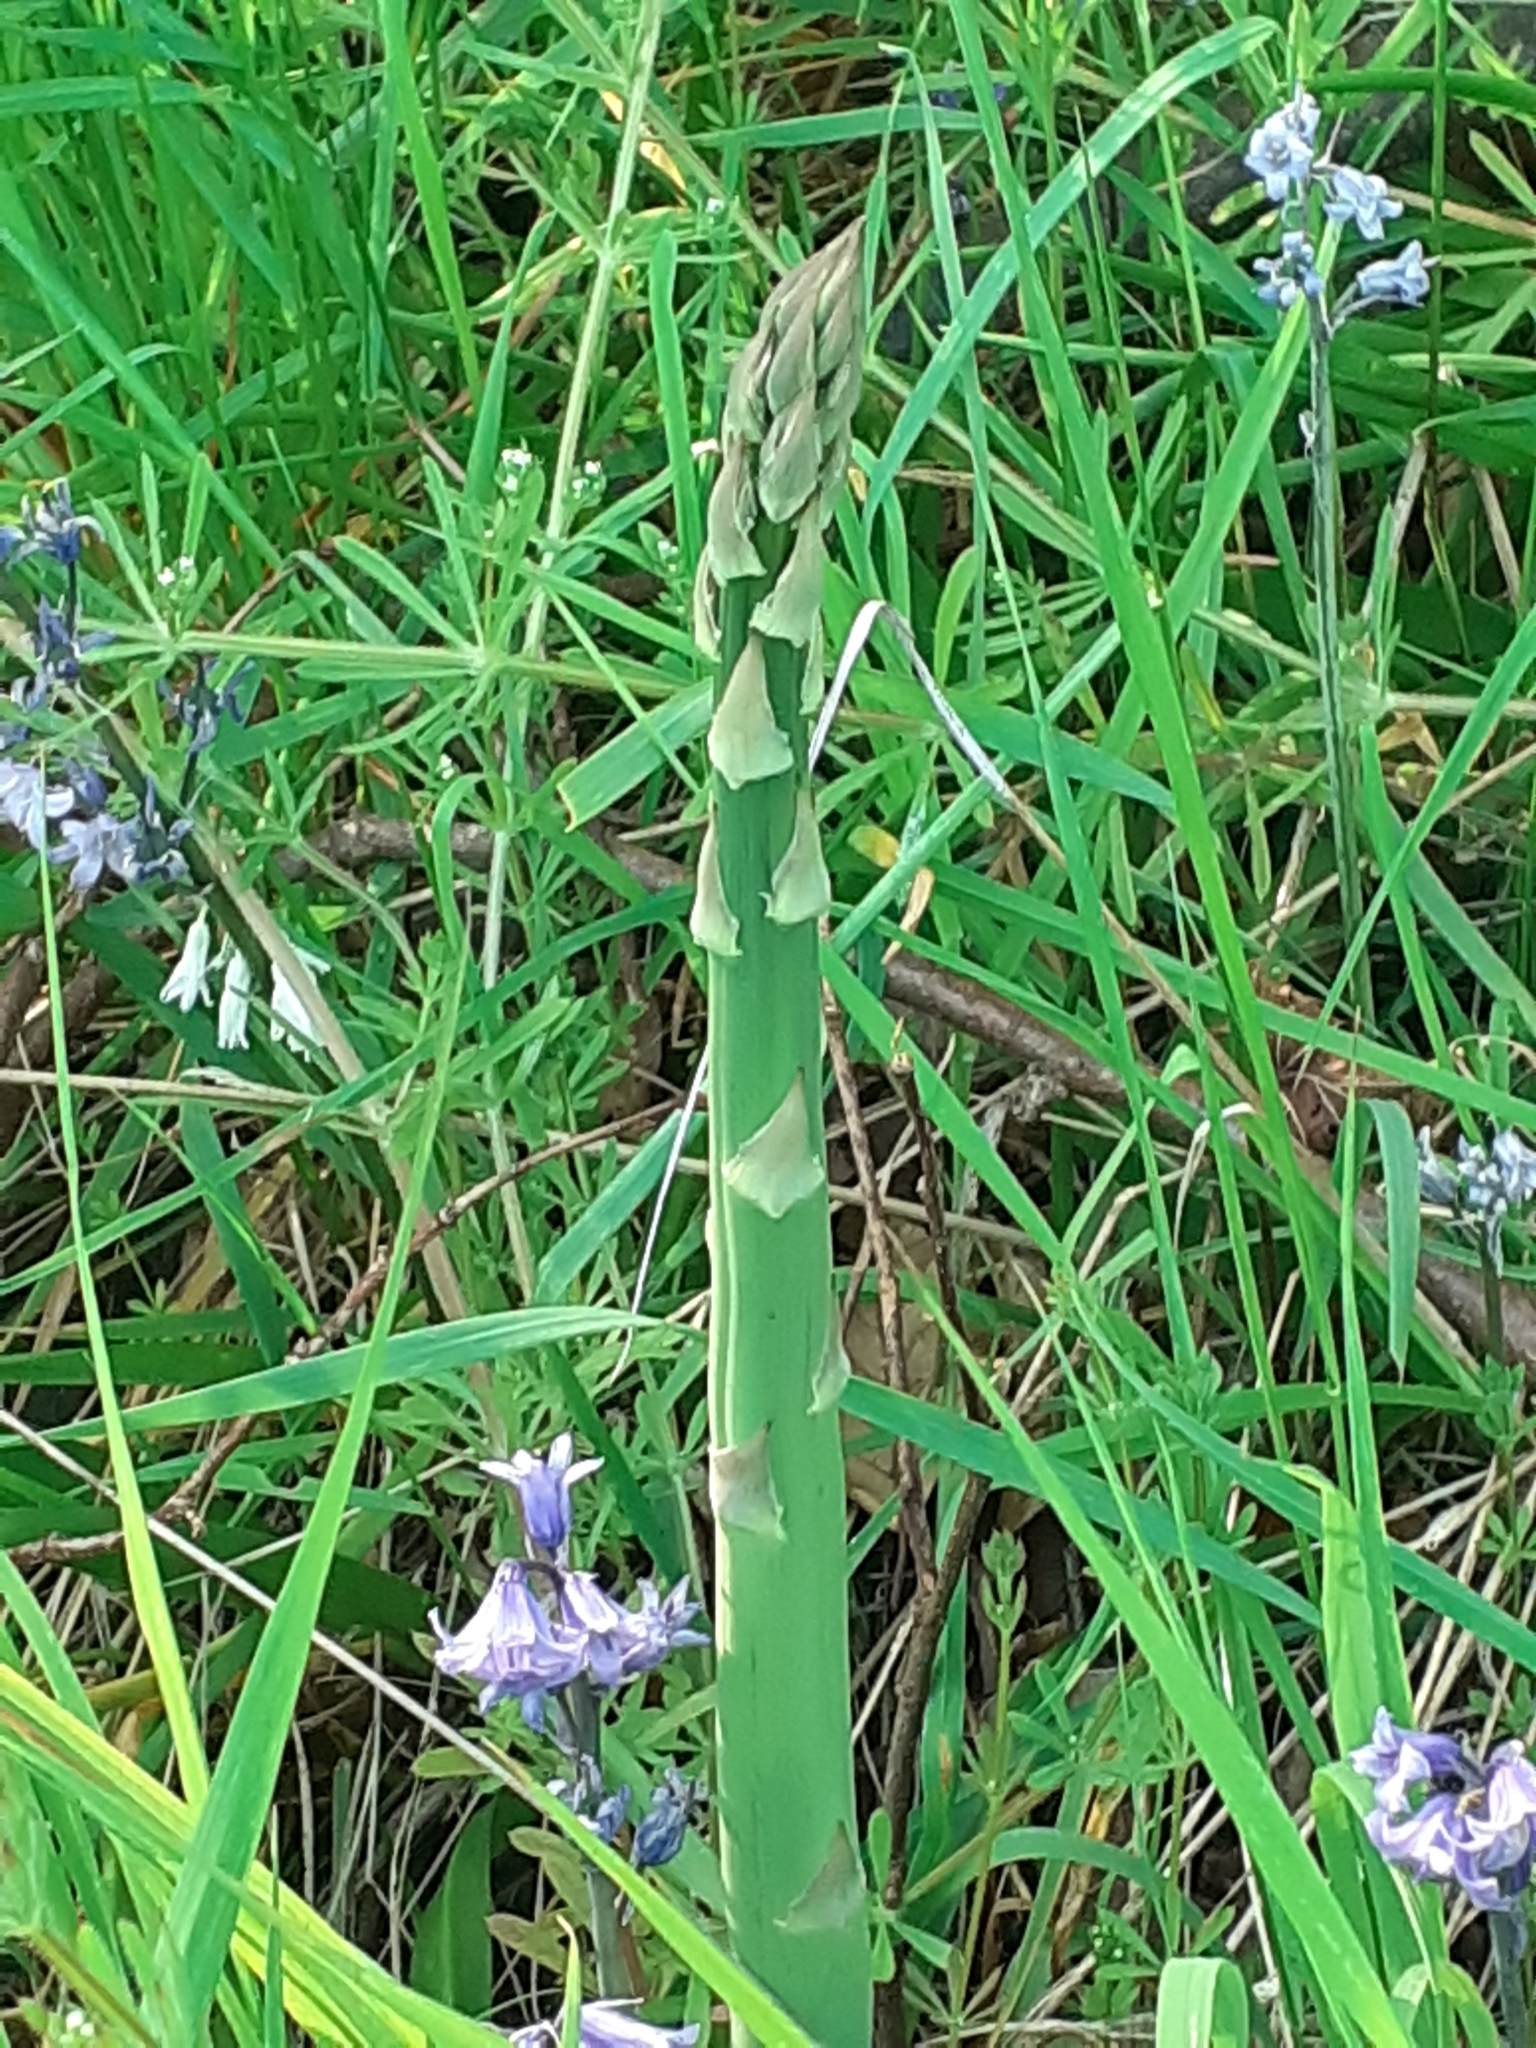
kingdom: Plantae
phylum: Tracheophyta
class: Liliopsida
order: Asparagales
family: Asparagaceae
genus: Asparagus
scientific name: Asparagus officinalis
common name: Garden asparagus
